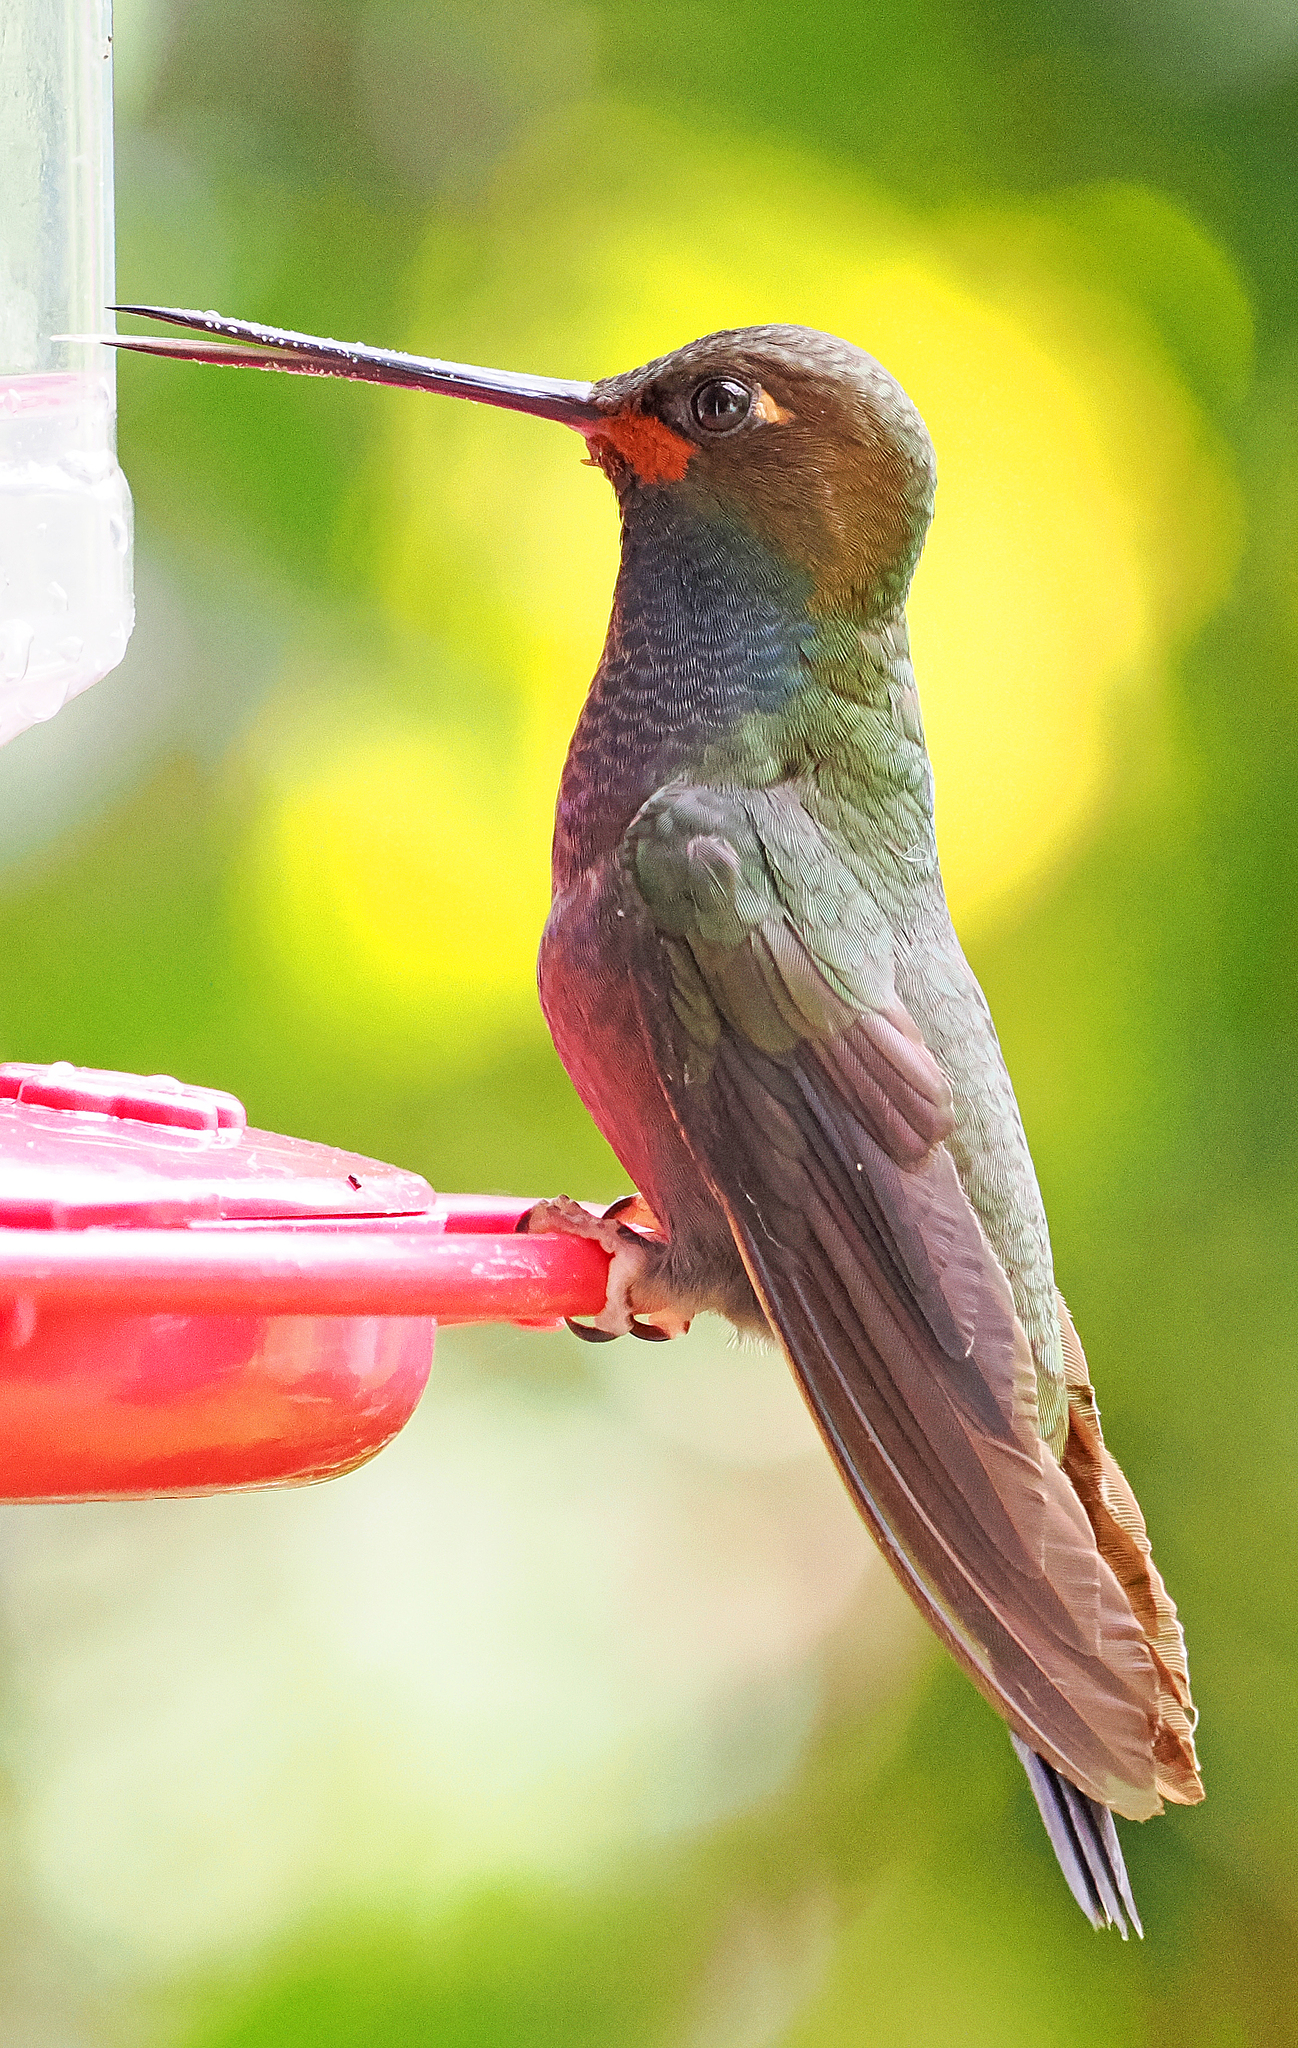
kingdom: Animalia
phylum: Chordata
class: Aves
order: Apodiformes
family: Trochilidae
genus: Urochroa
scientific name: Urochroa bougueri
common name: White-tailed hillstar
